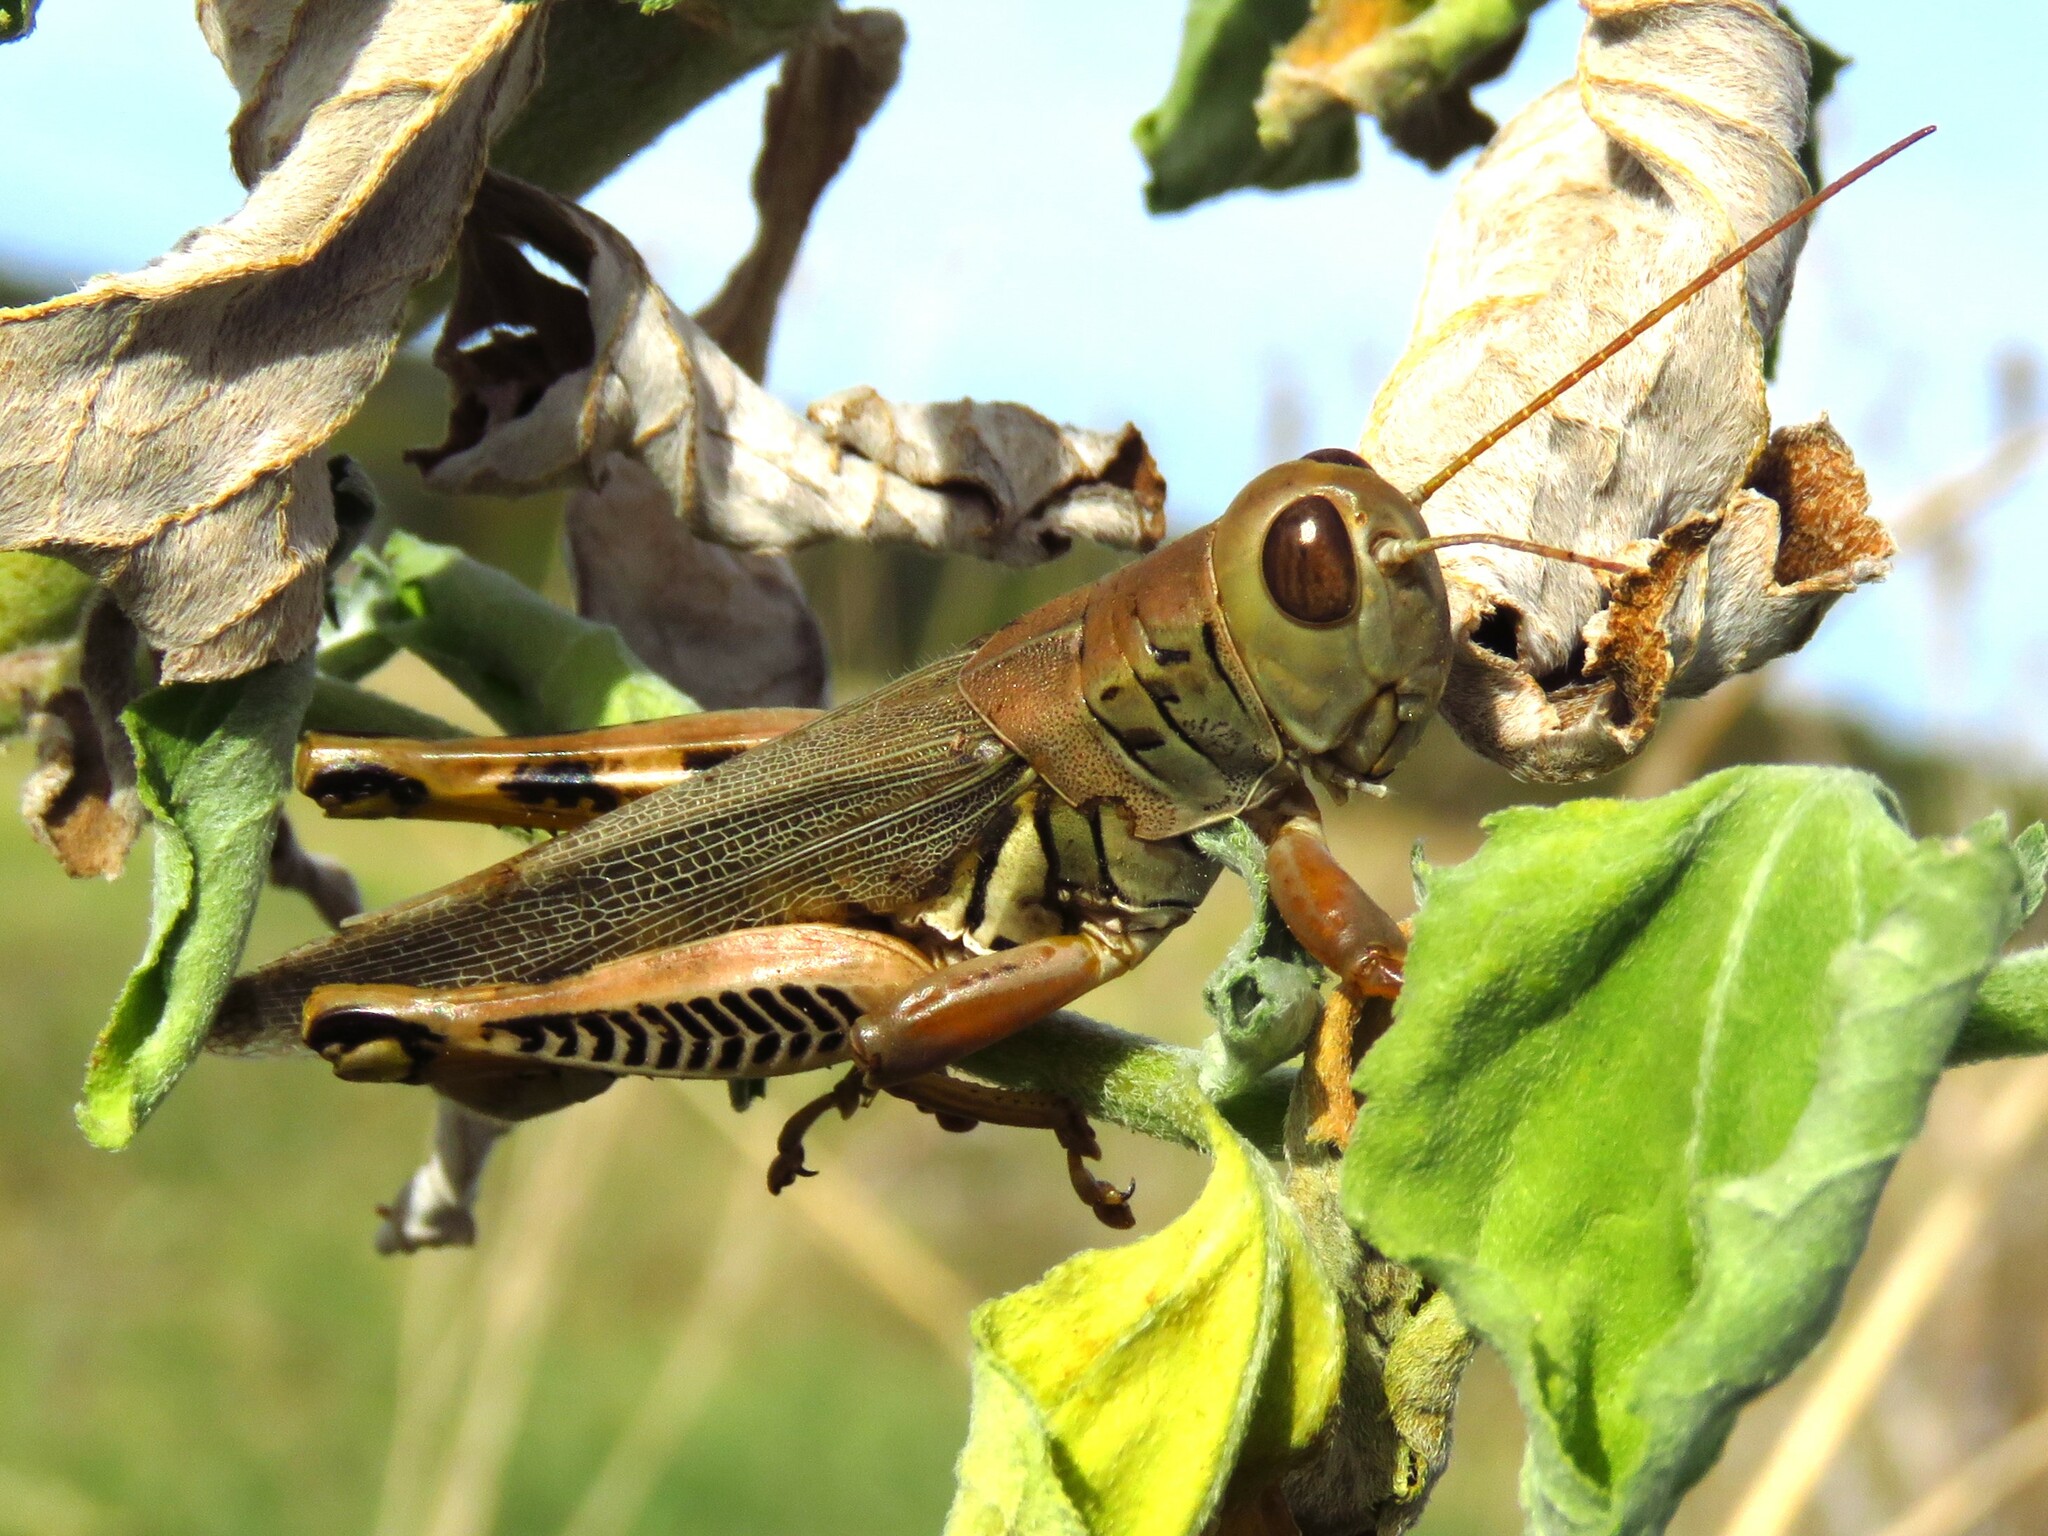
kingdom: Animalia
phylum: Arthropoda
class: Insecta
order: Orthoptera
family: Acrididae
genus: Melanoplus
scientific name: Melanoplus differentialis
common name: Differential grasshopper
